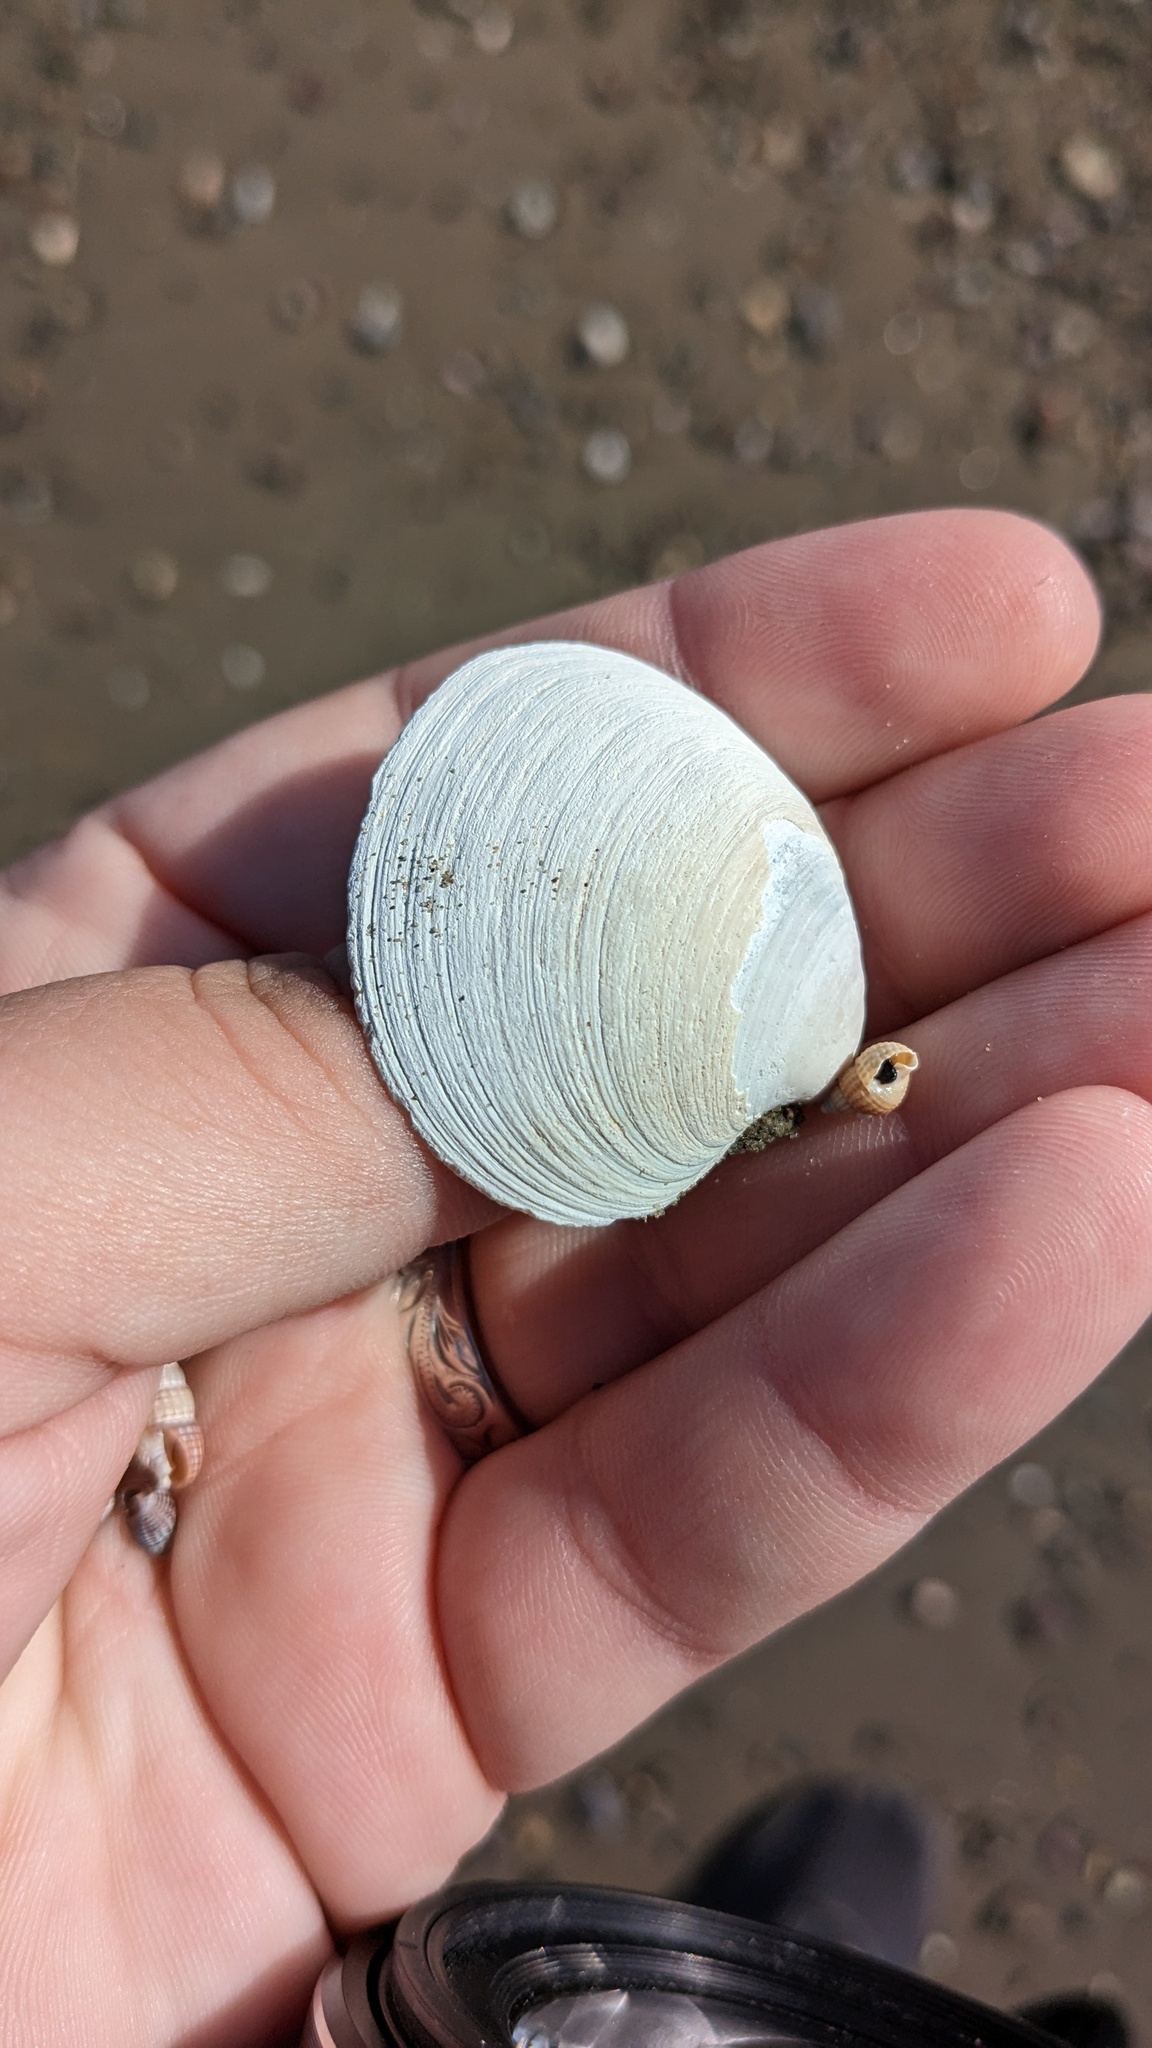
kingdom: Animalia
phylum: Mollusca
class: Bivalvia
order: Venerida
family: Veneridae
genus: Agriopoma
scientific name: Agriopoma morrhuanum
